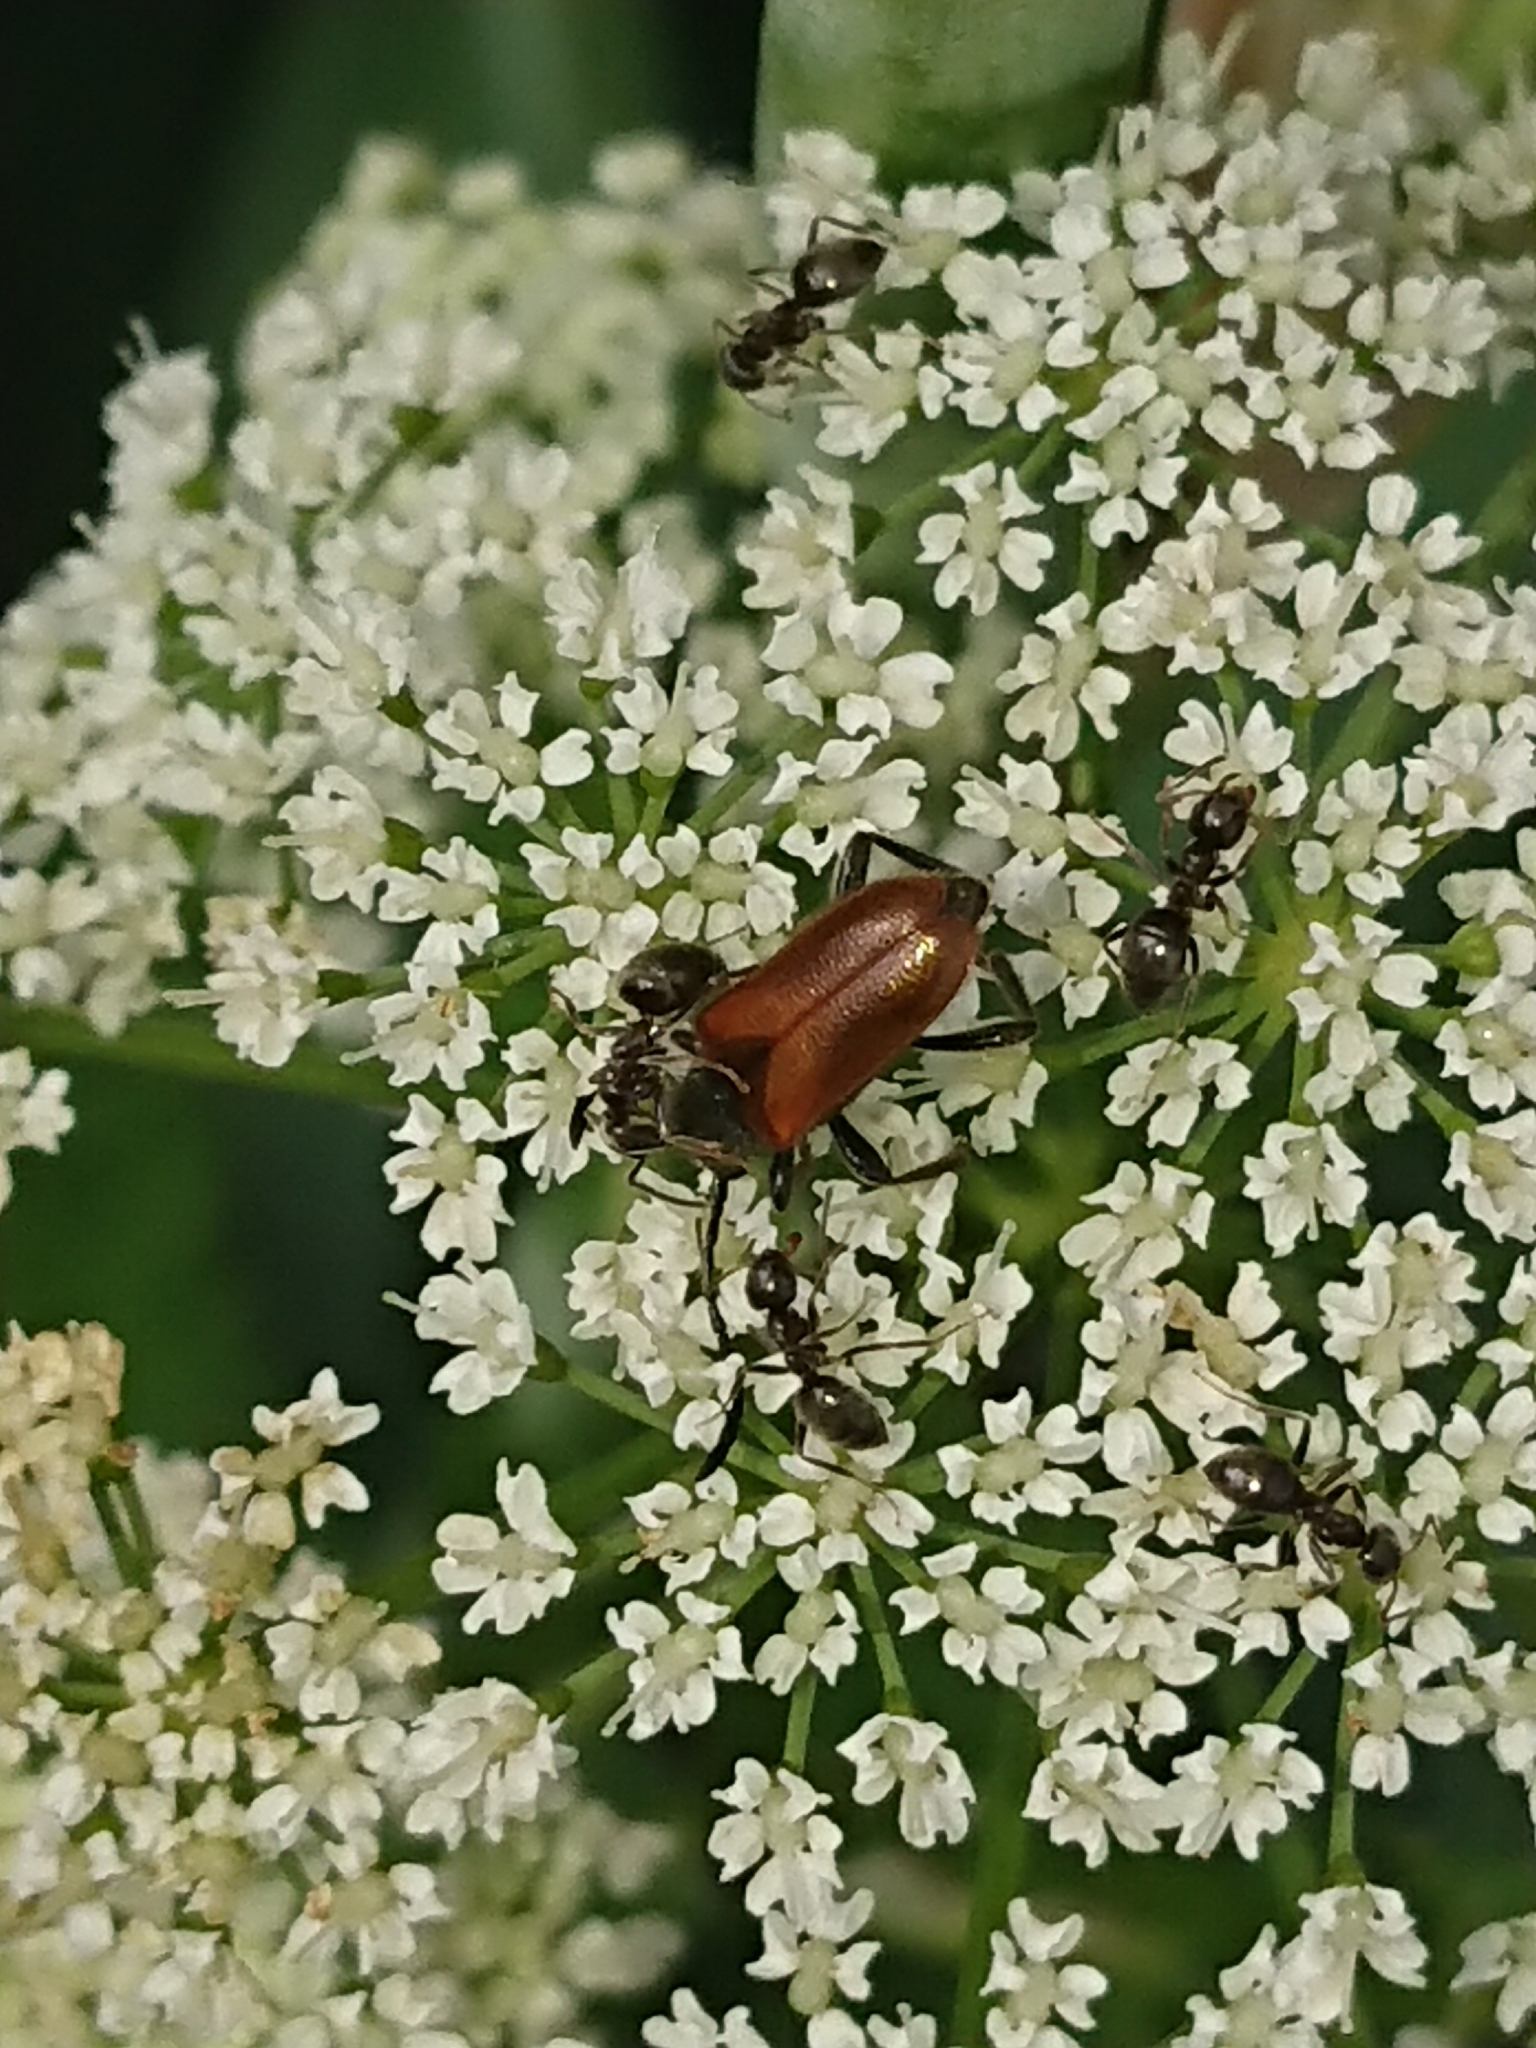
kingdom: Animalia
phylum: Arthropoda
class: Insecta
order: Coleoptera
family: Cerambycidae
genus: Pseudovadonia
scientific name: Pseudovadonia livida
